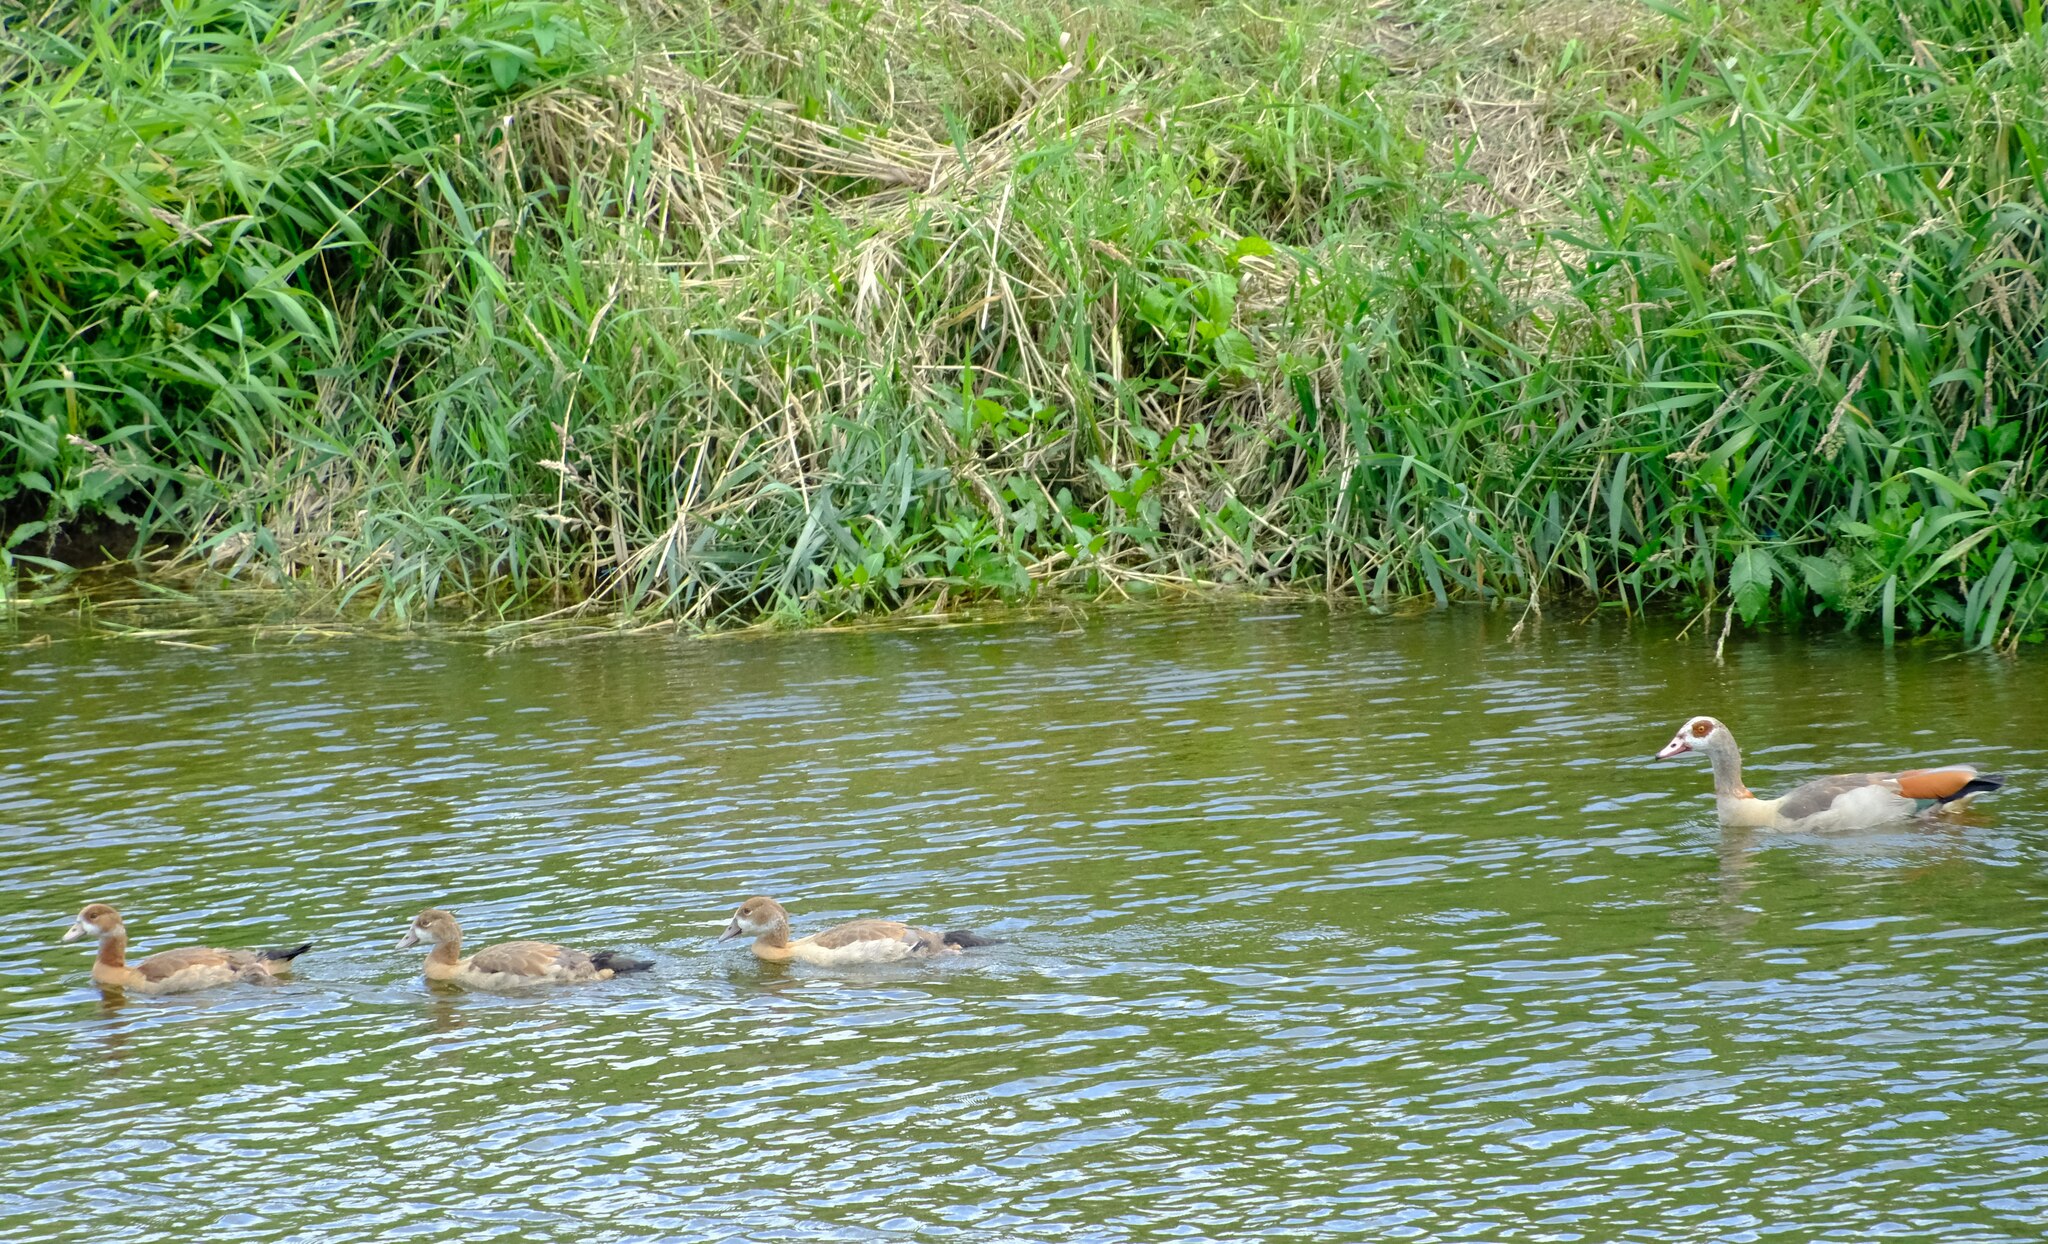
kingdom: Animalia
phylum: Chordata
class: Aves
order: Anseriformes
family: Anatidae
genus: Alopochen
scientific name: Alopochen aegyptiaca
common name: Egyptian goose
